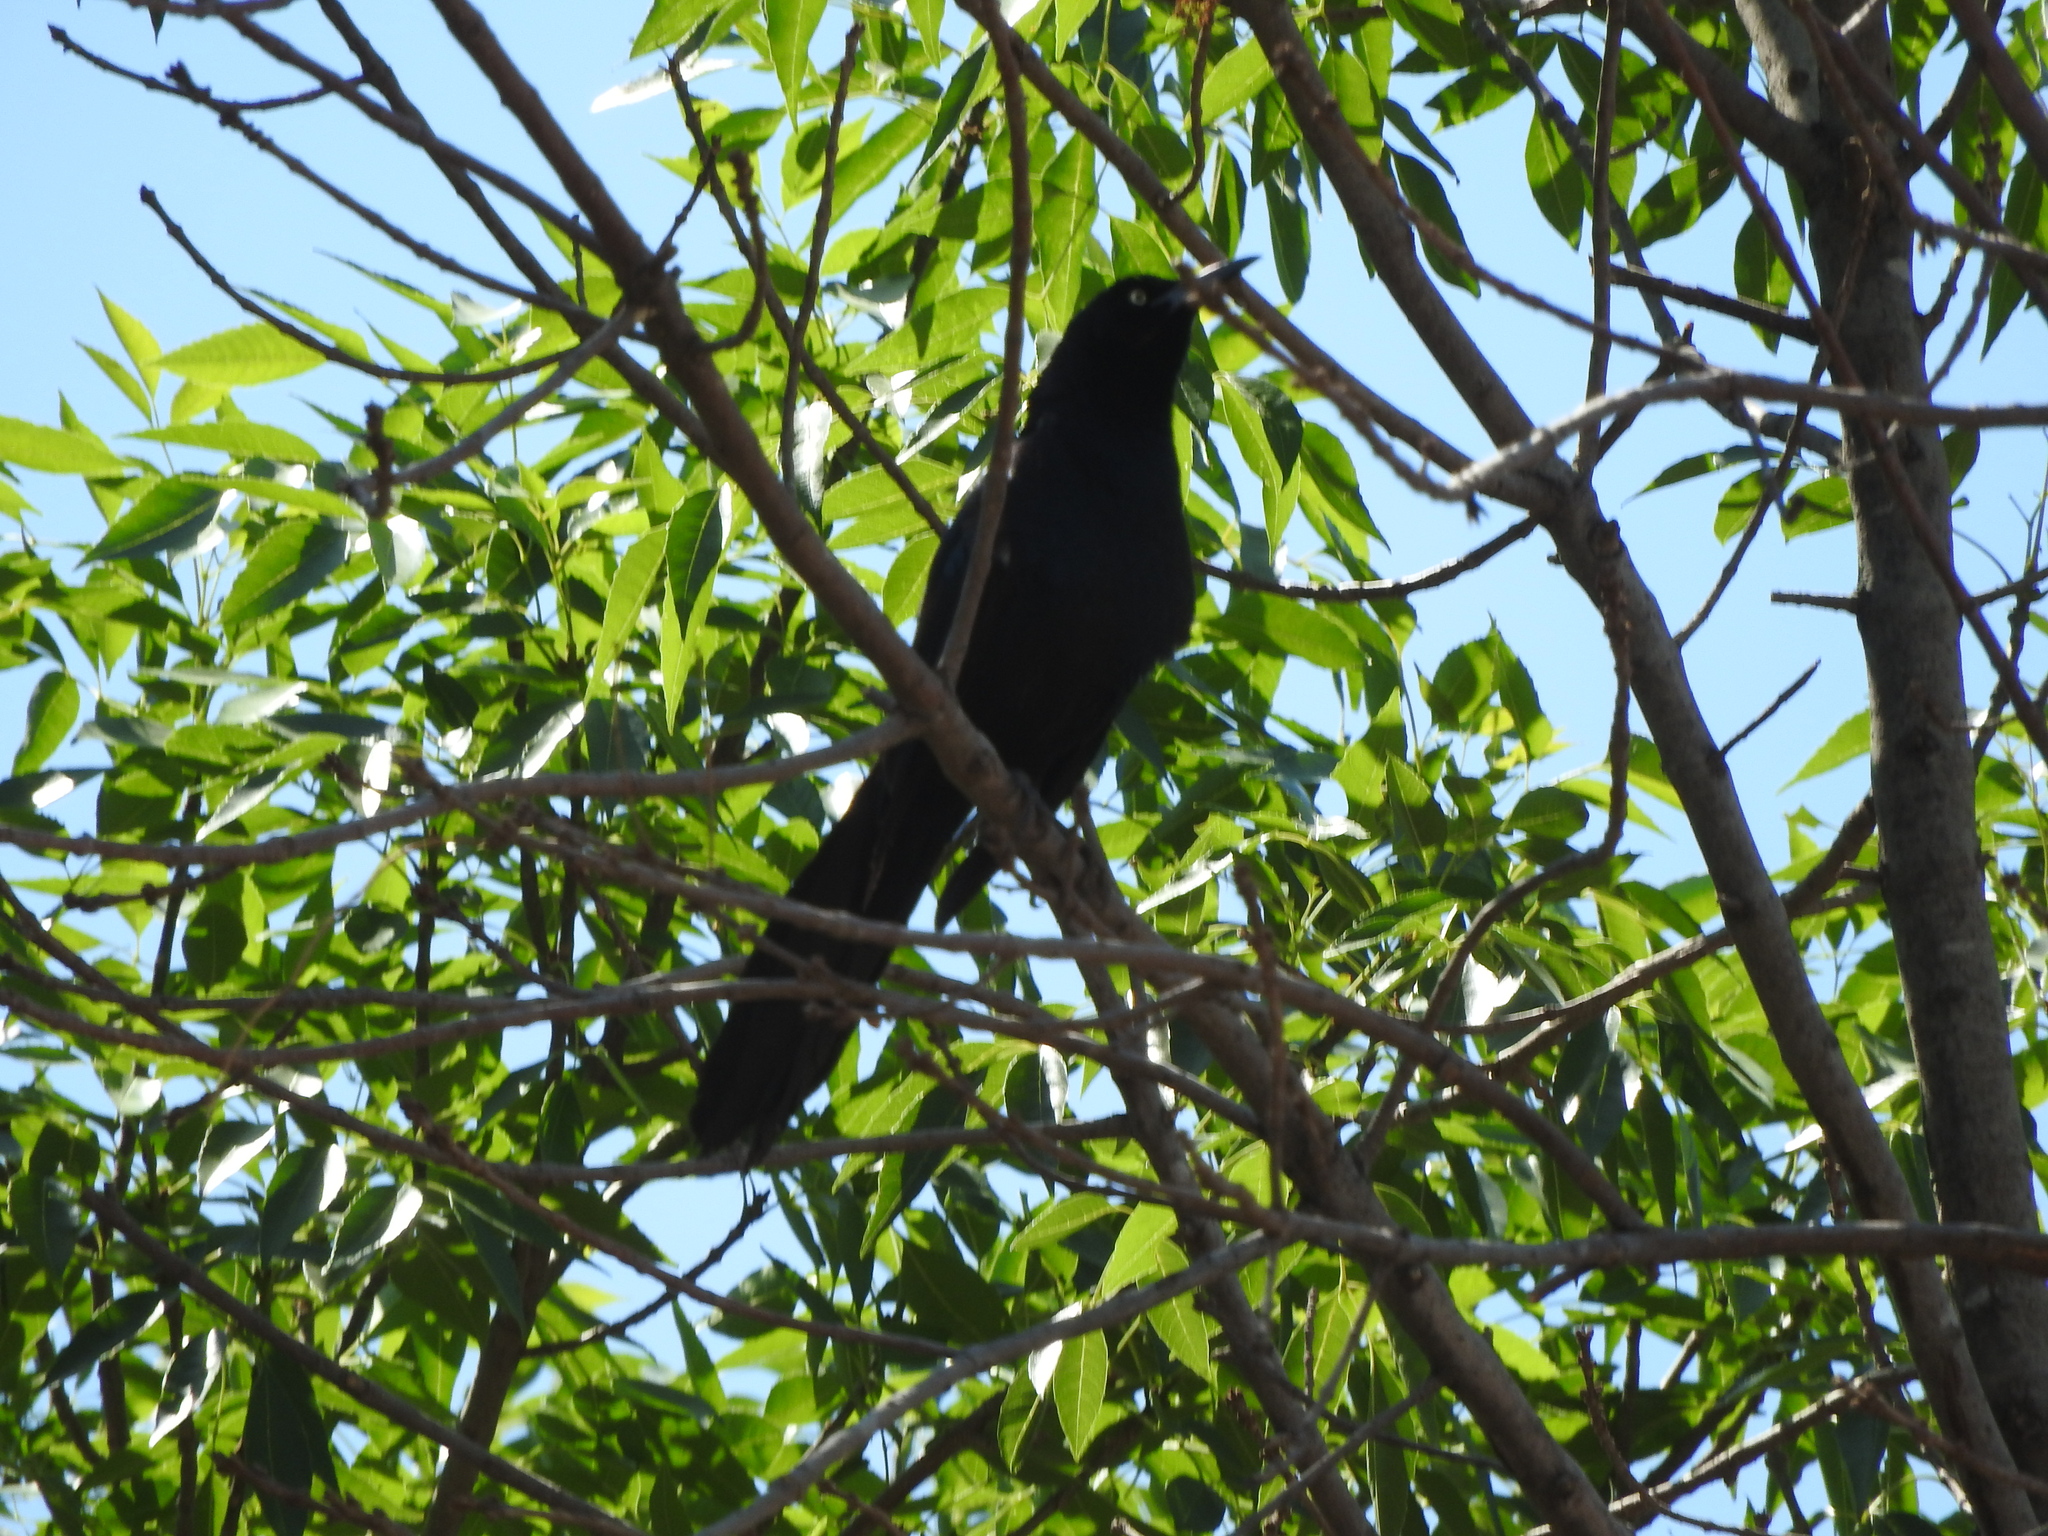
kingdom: Animalia
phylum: Chordata
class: Aves
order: Passeriformes
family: Icteridae
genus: Quiscalus
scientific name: Quiscalus mexicanus
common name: Great-tailed grackle
